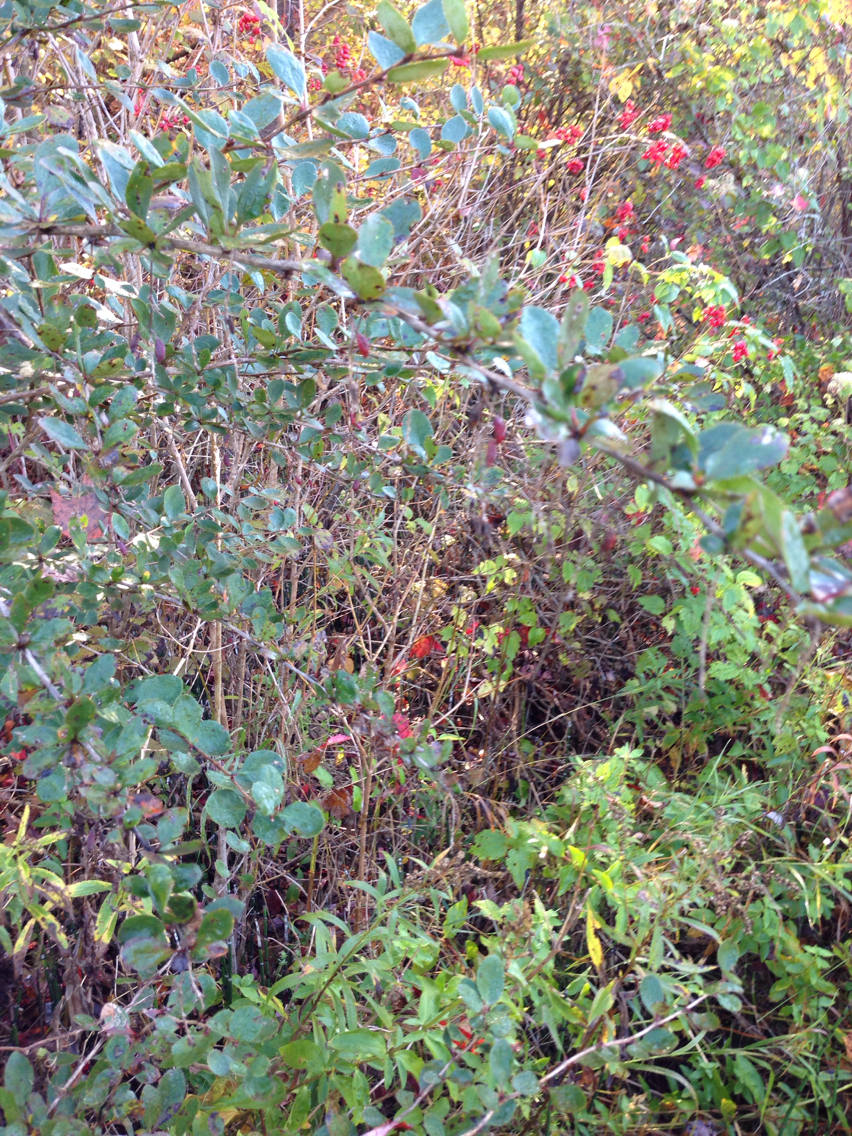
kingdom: Plantae
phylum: Tracheophyta
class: Magnoliopsida
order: Ranunculales
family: Berberidaceae
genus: Berberis
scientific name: Berberis thunbergii
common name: Japanese barberry
